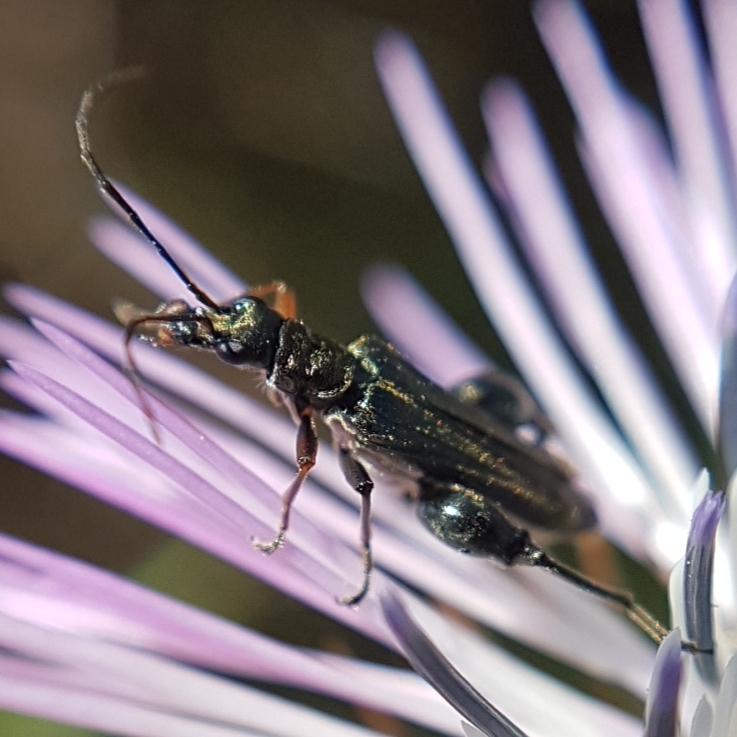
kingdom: Animalia
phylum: Arthropoda
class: Insecta
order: Coleoptera
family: Oedemeridae
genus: Oedemera
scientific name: Oedemera flavipes
